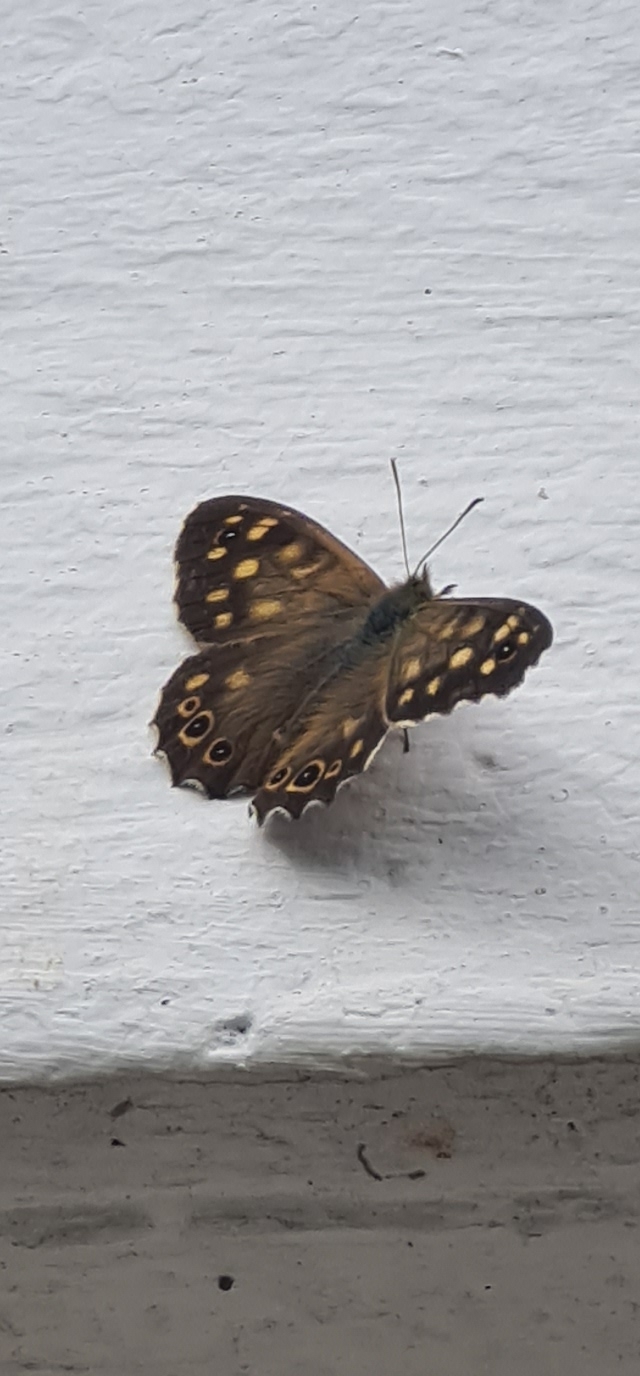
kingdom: Animalia
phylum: Arthropoda
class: Insecta
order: Lepidoptera
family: Nymphalidae
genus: Pararge
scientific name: Pararge aegeria
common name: Speckled wood
